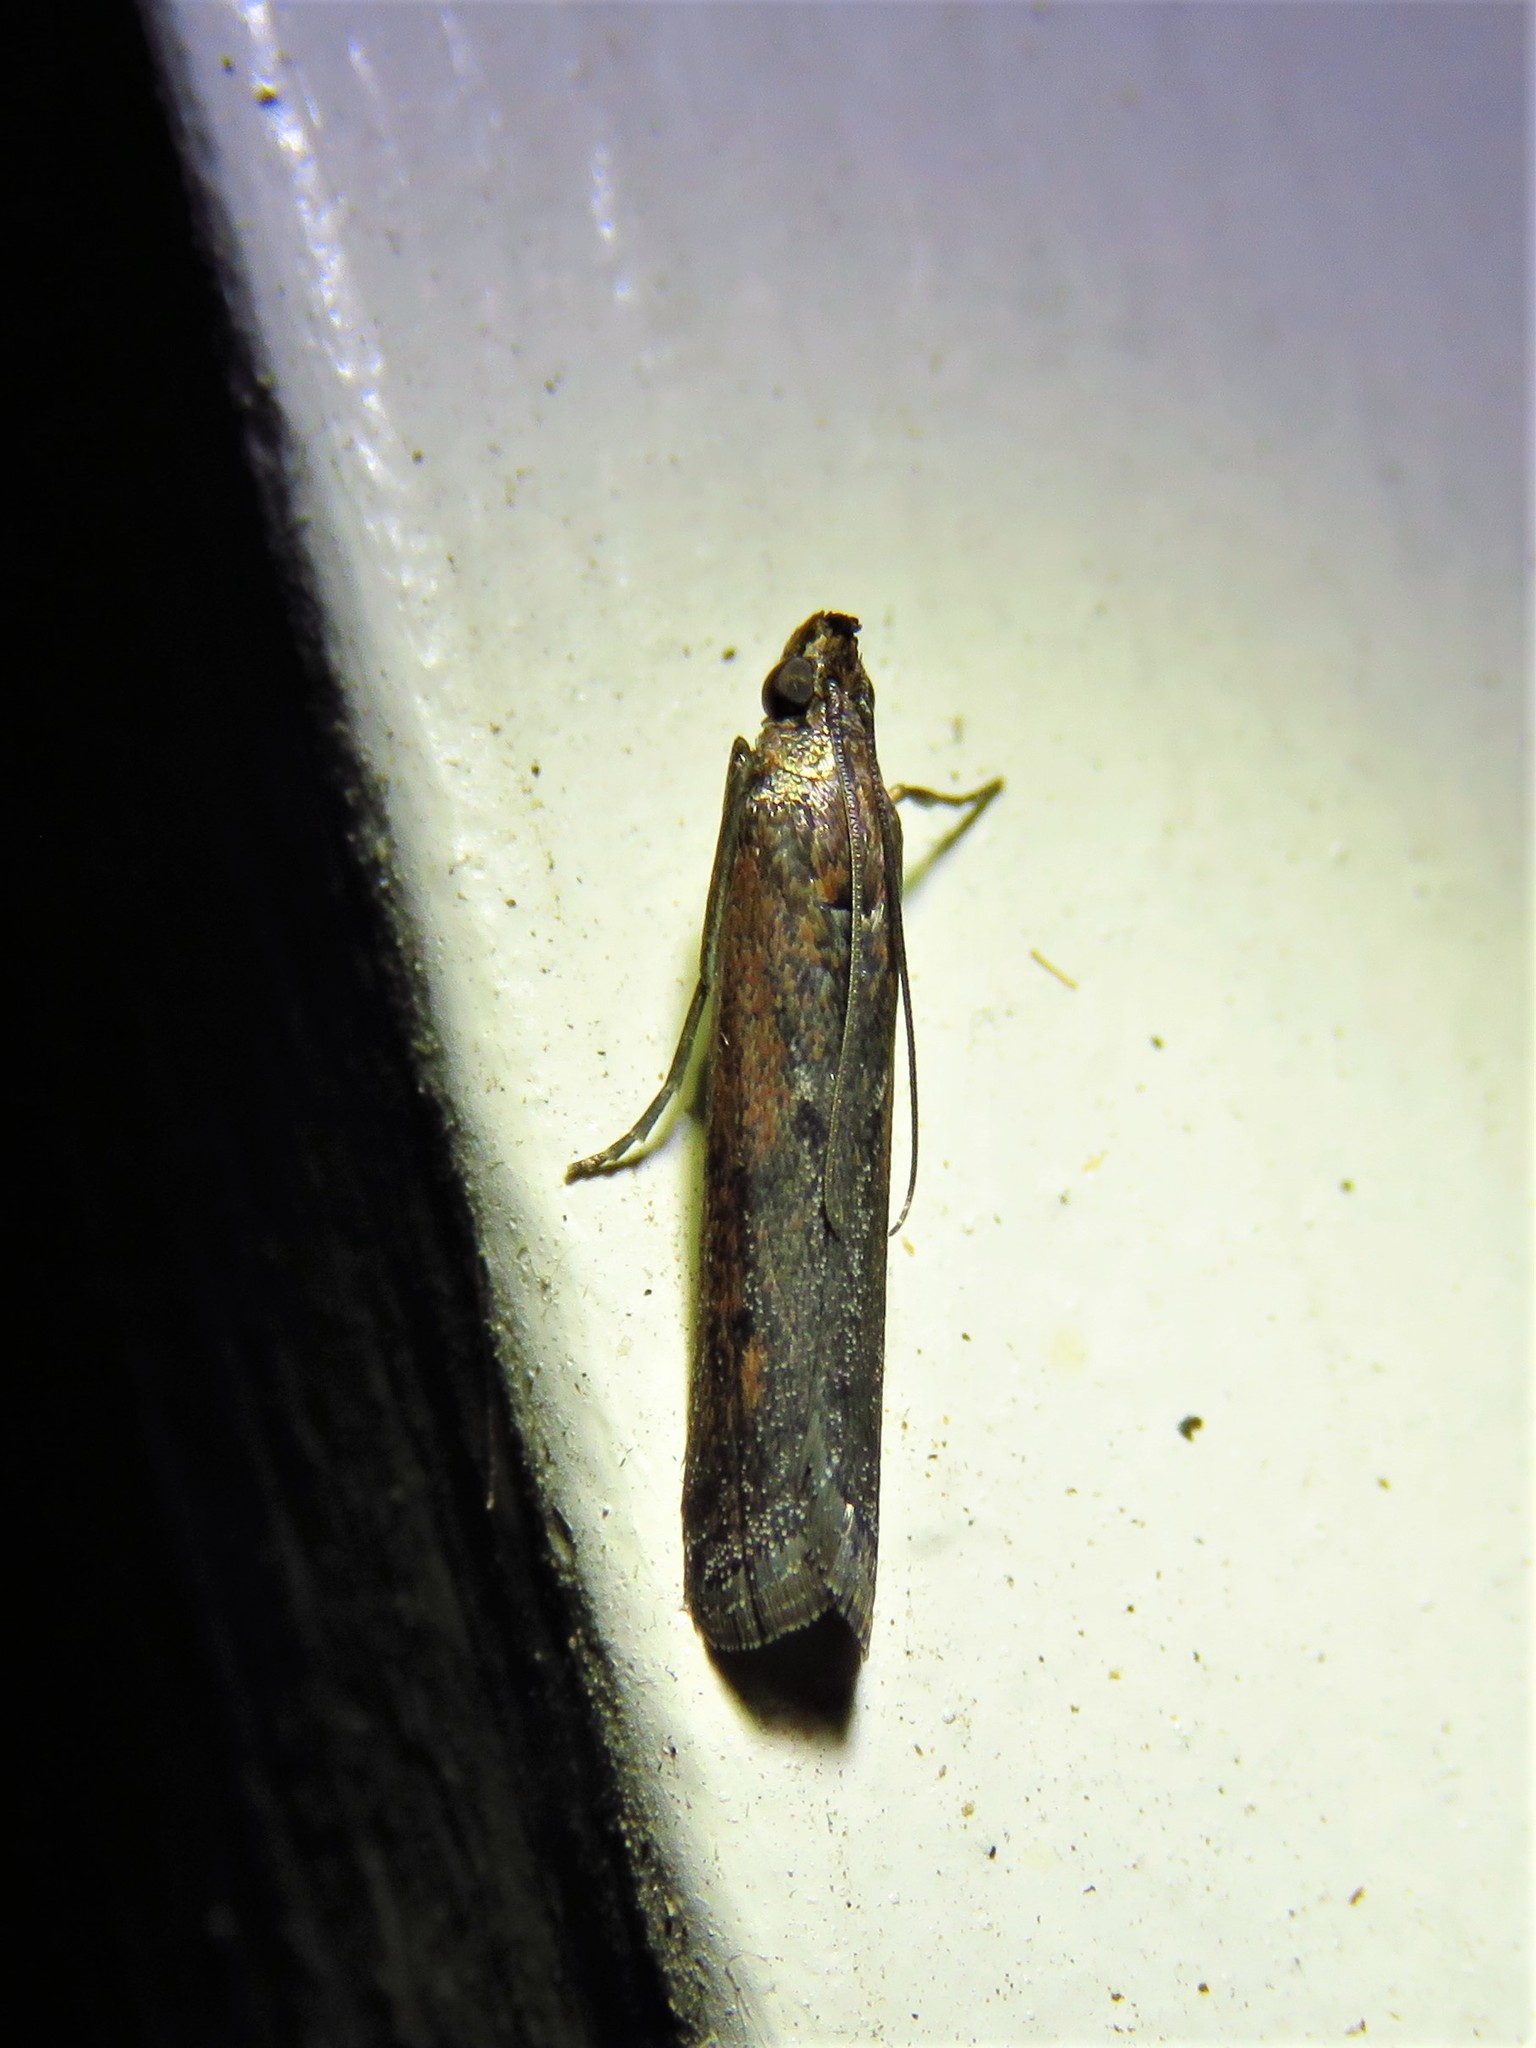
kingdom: Animalia
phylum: Arthropoda
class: Insecta
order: Lepidoptera
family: Pyralidae
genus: Elasmopalpus
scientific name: Elasmopalpus lignosella
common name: Lesser cornstalk borer
